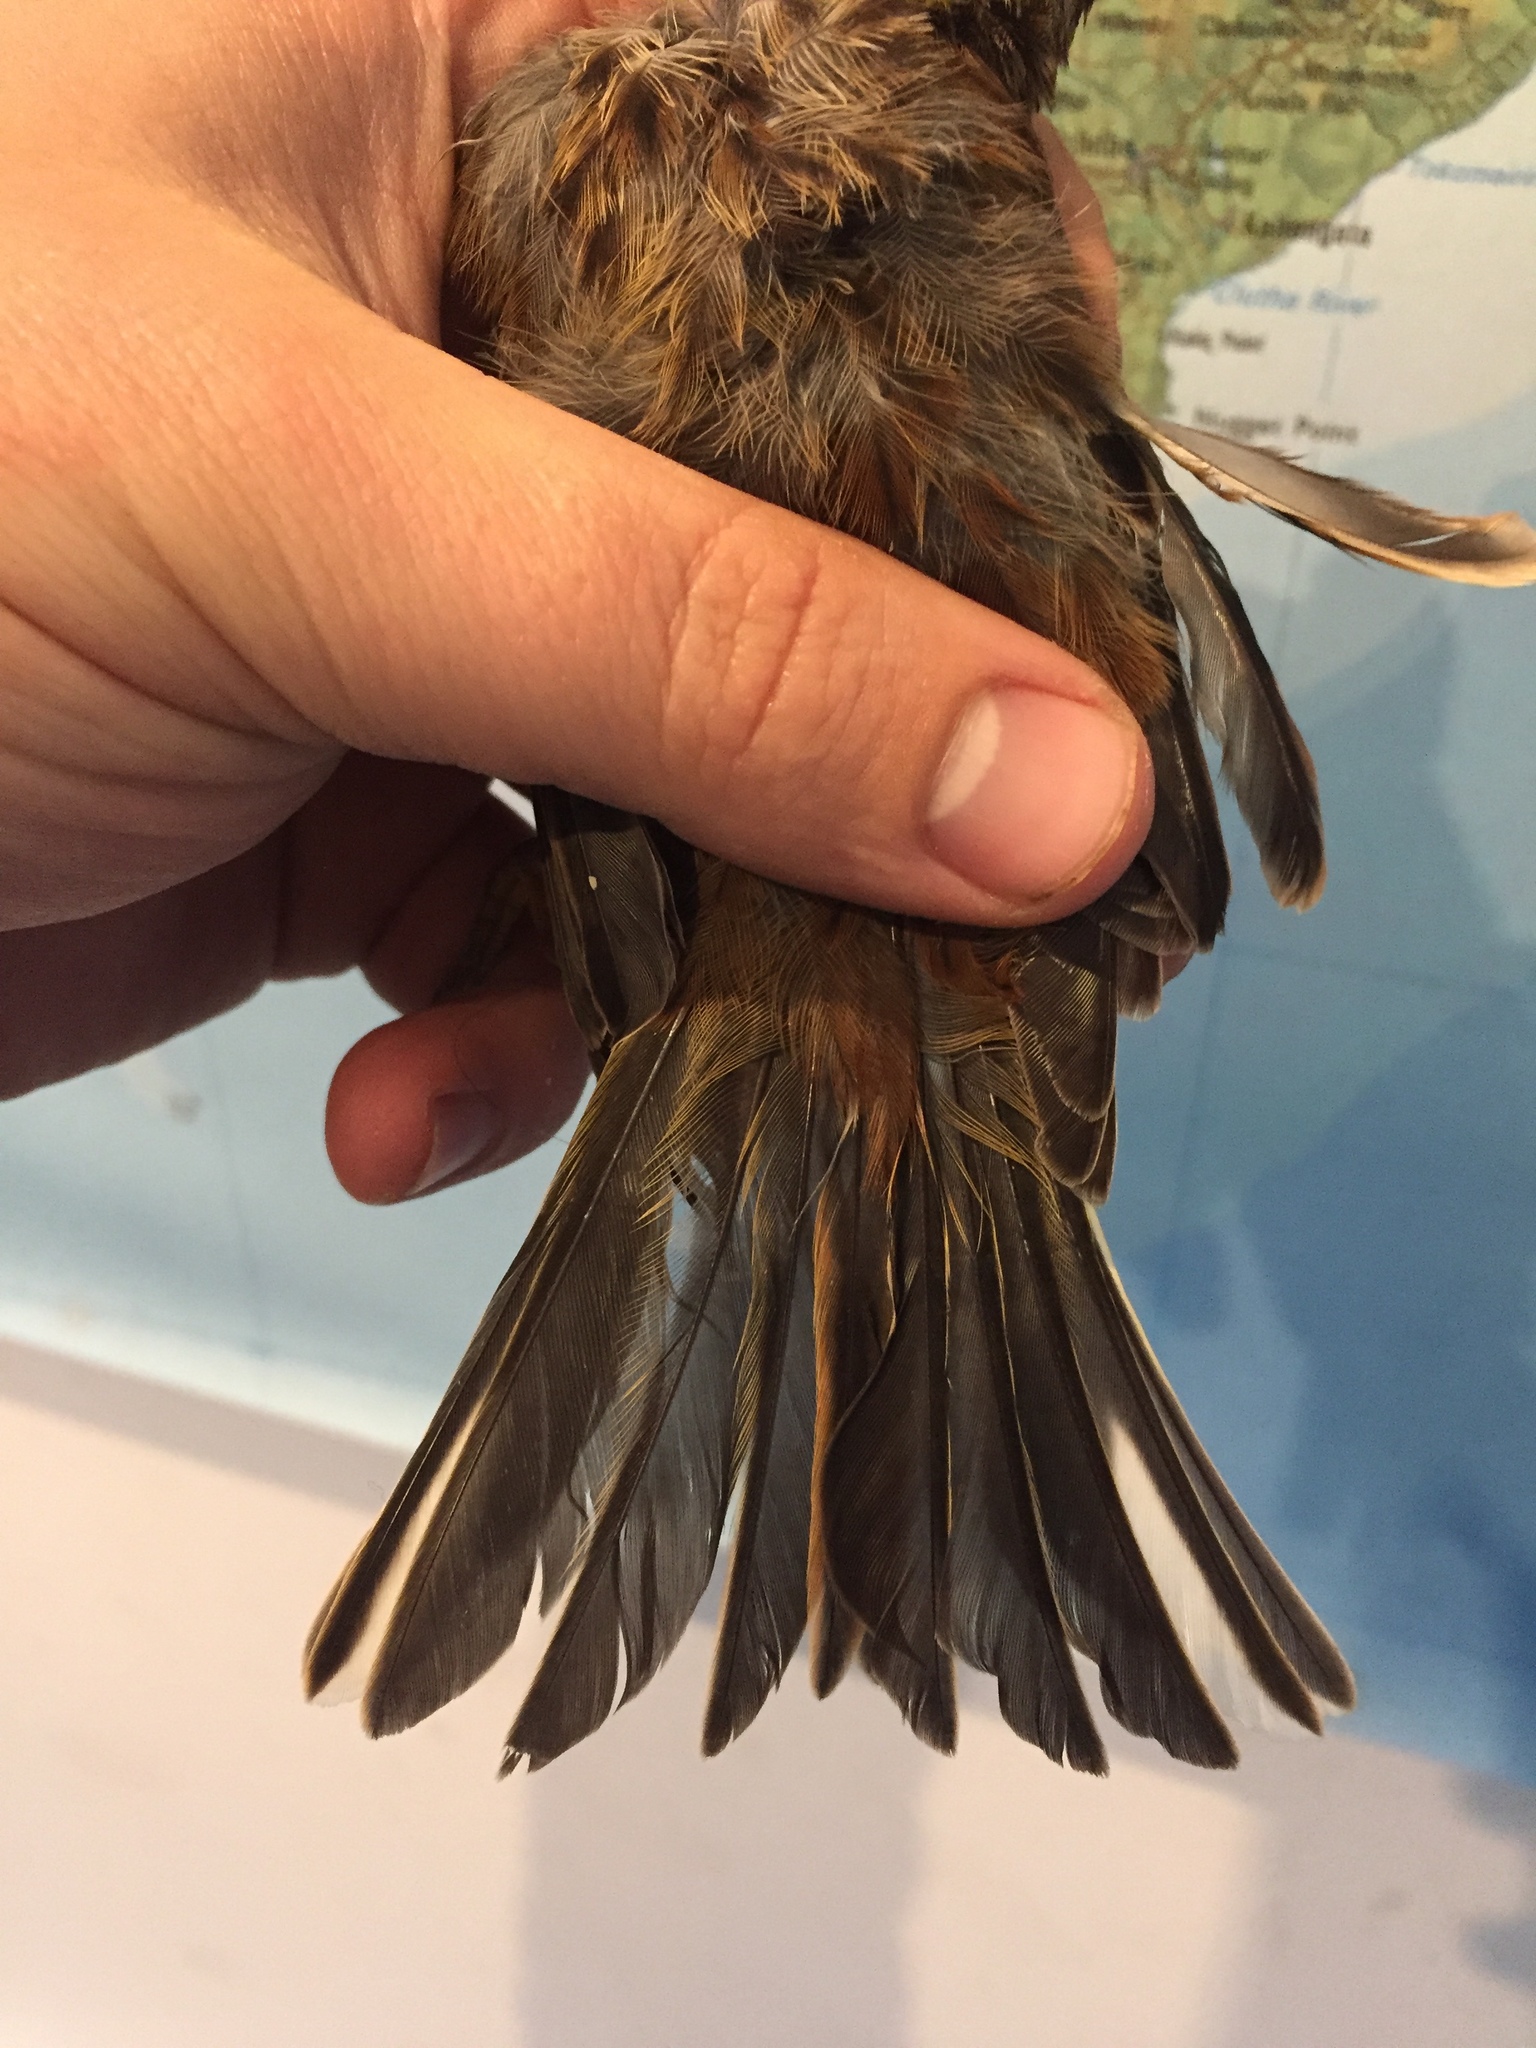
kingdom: Animalia
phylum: Chordata
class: Aves
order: Passeriformes
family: Emberizidae
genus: Emberiza
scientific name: Emberiza citrinella
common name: Yellowhammer
